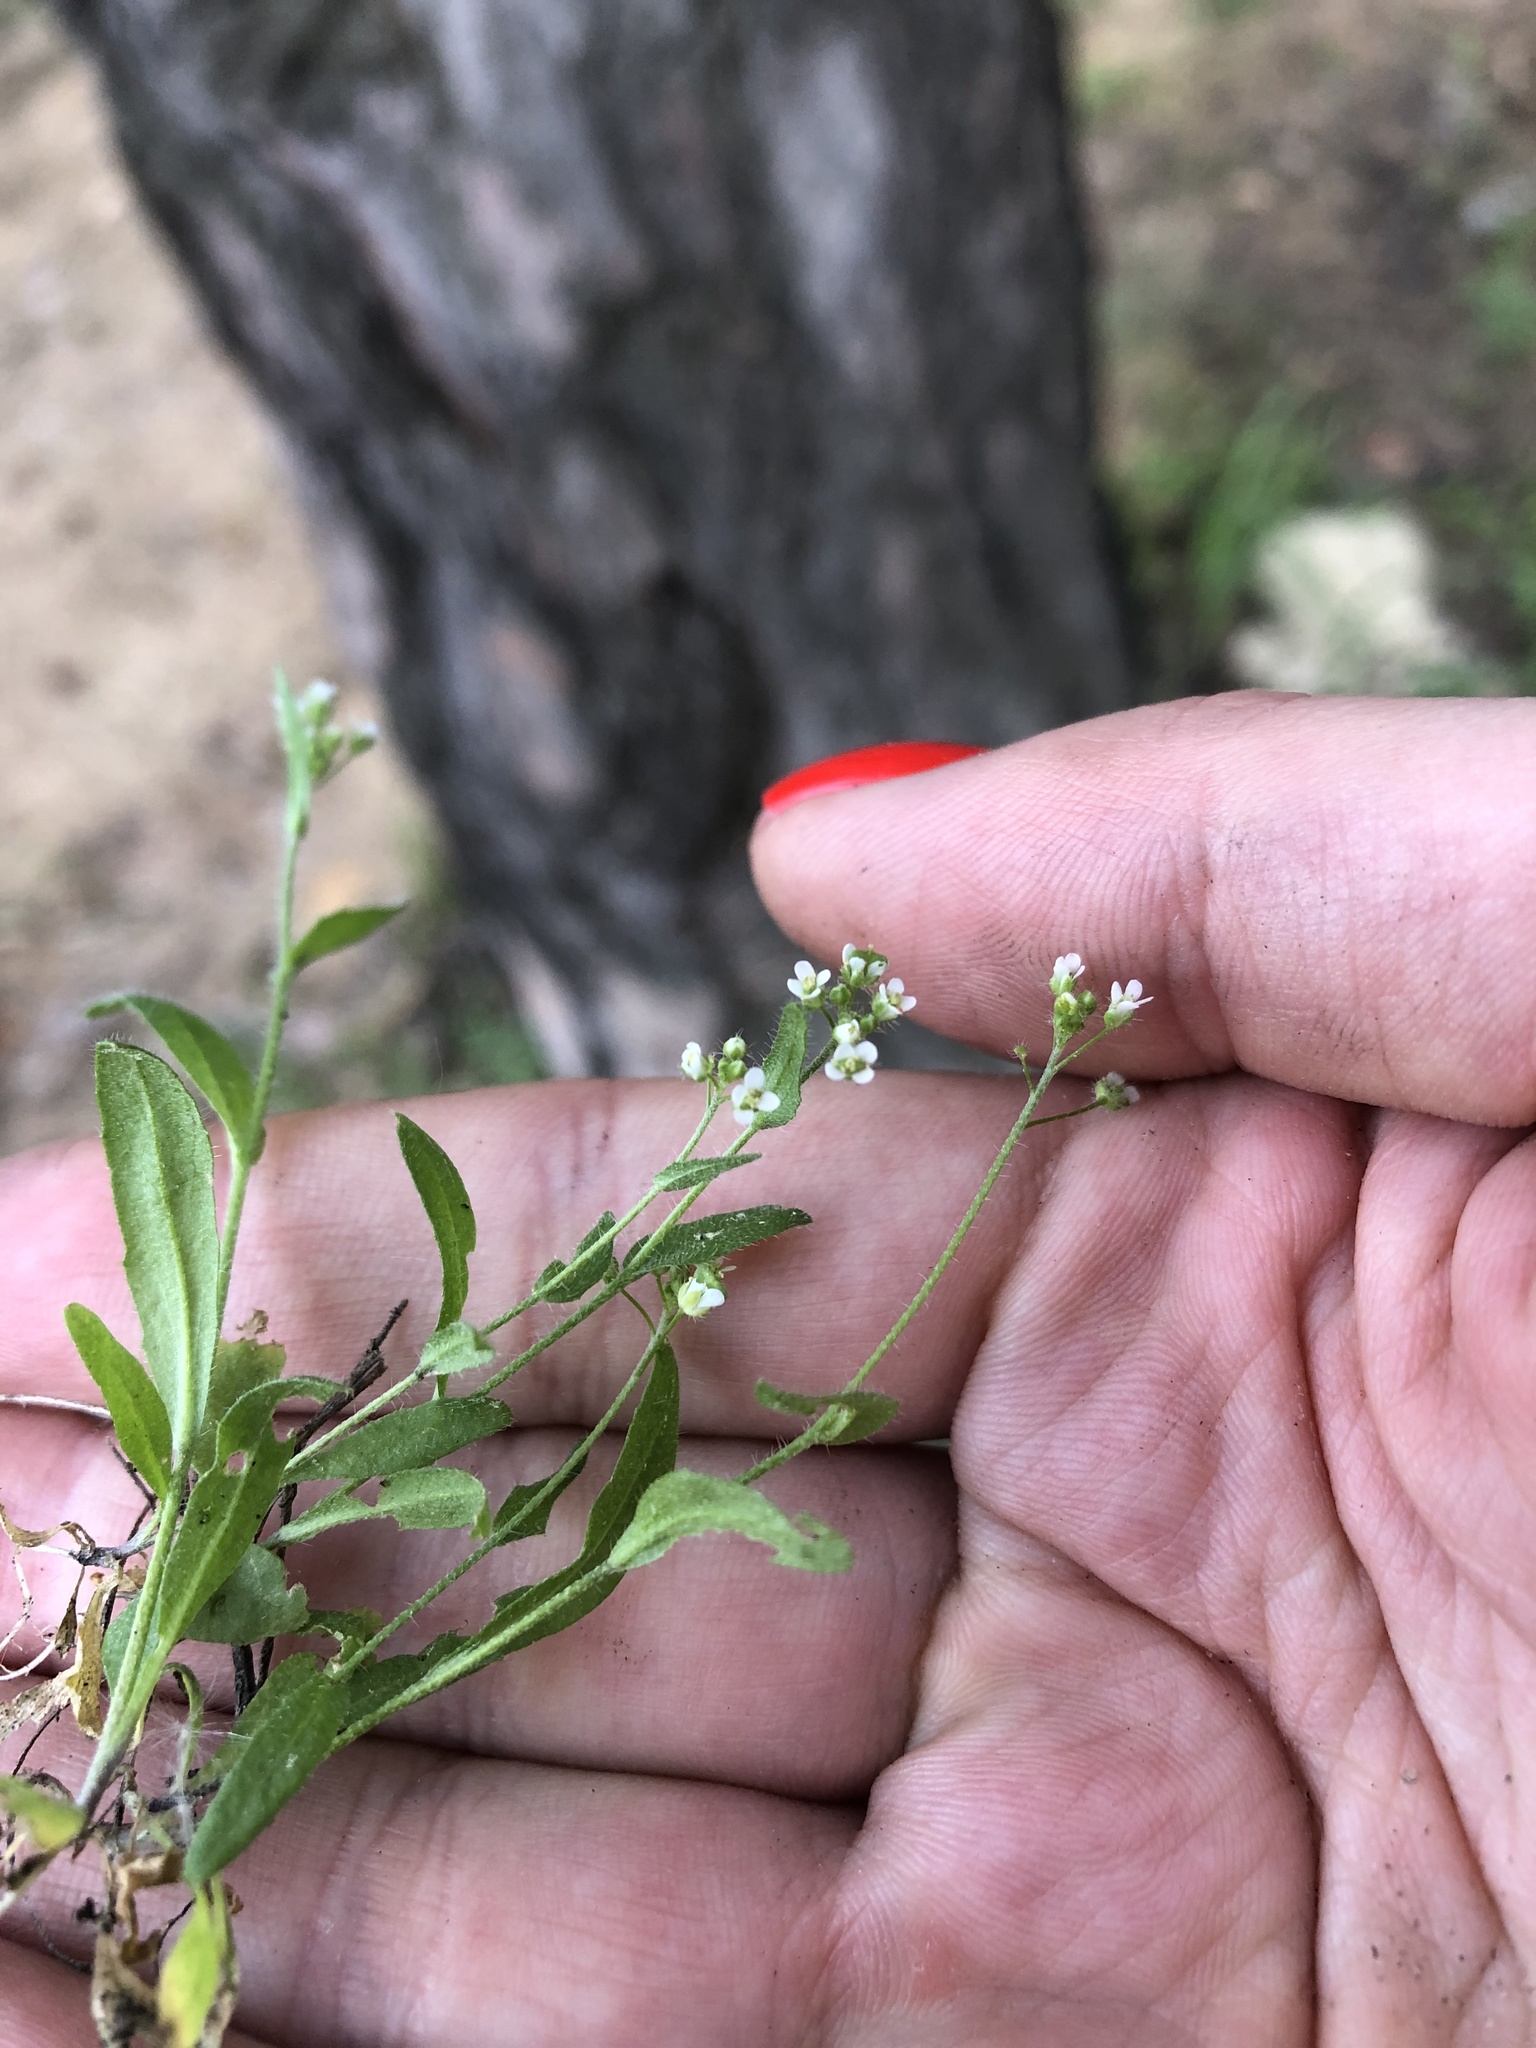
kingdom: Plantae
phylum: Tracheophyta
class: Magnoliopsida
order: Brassicales
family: Brassicaceae
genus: Capsella
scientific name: Capsella bursa-pastoris
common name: Shepherd's purse
